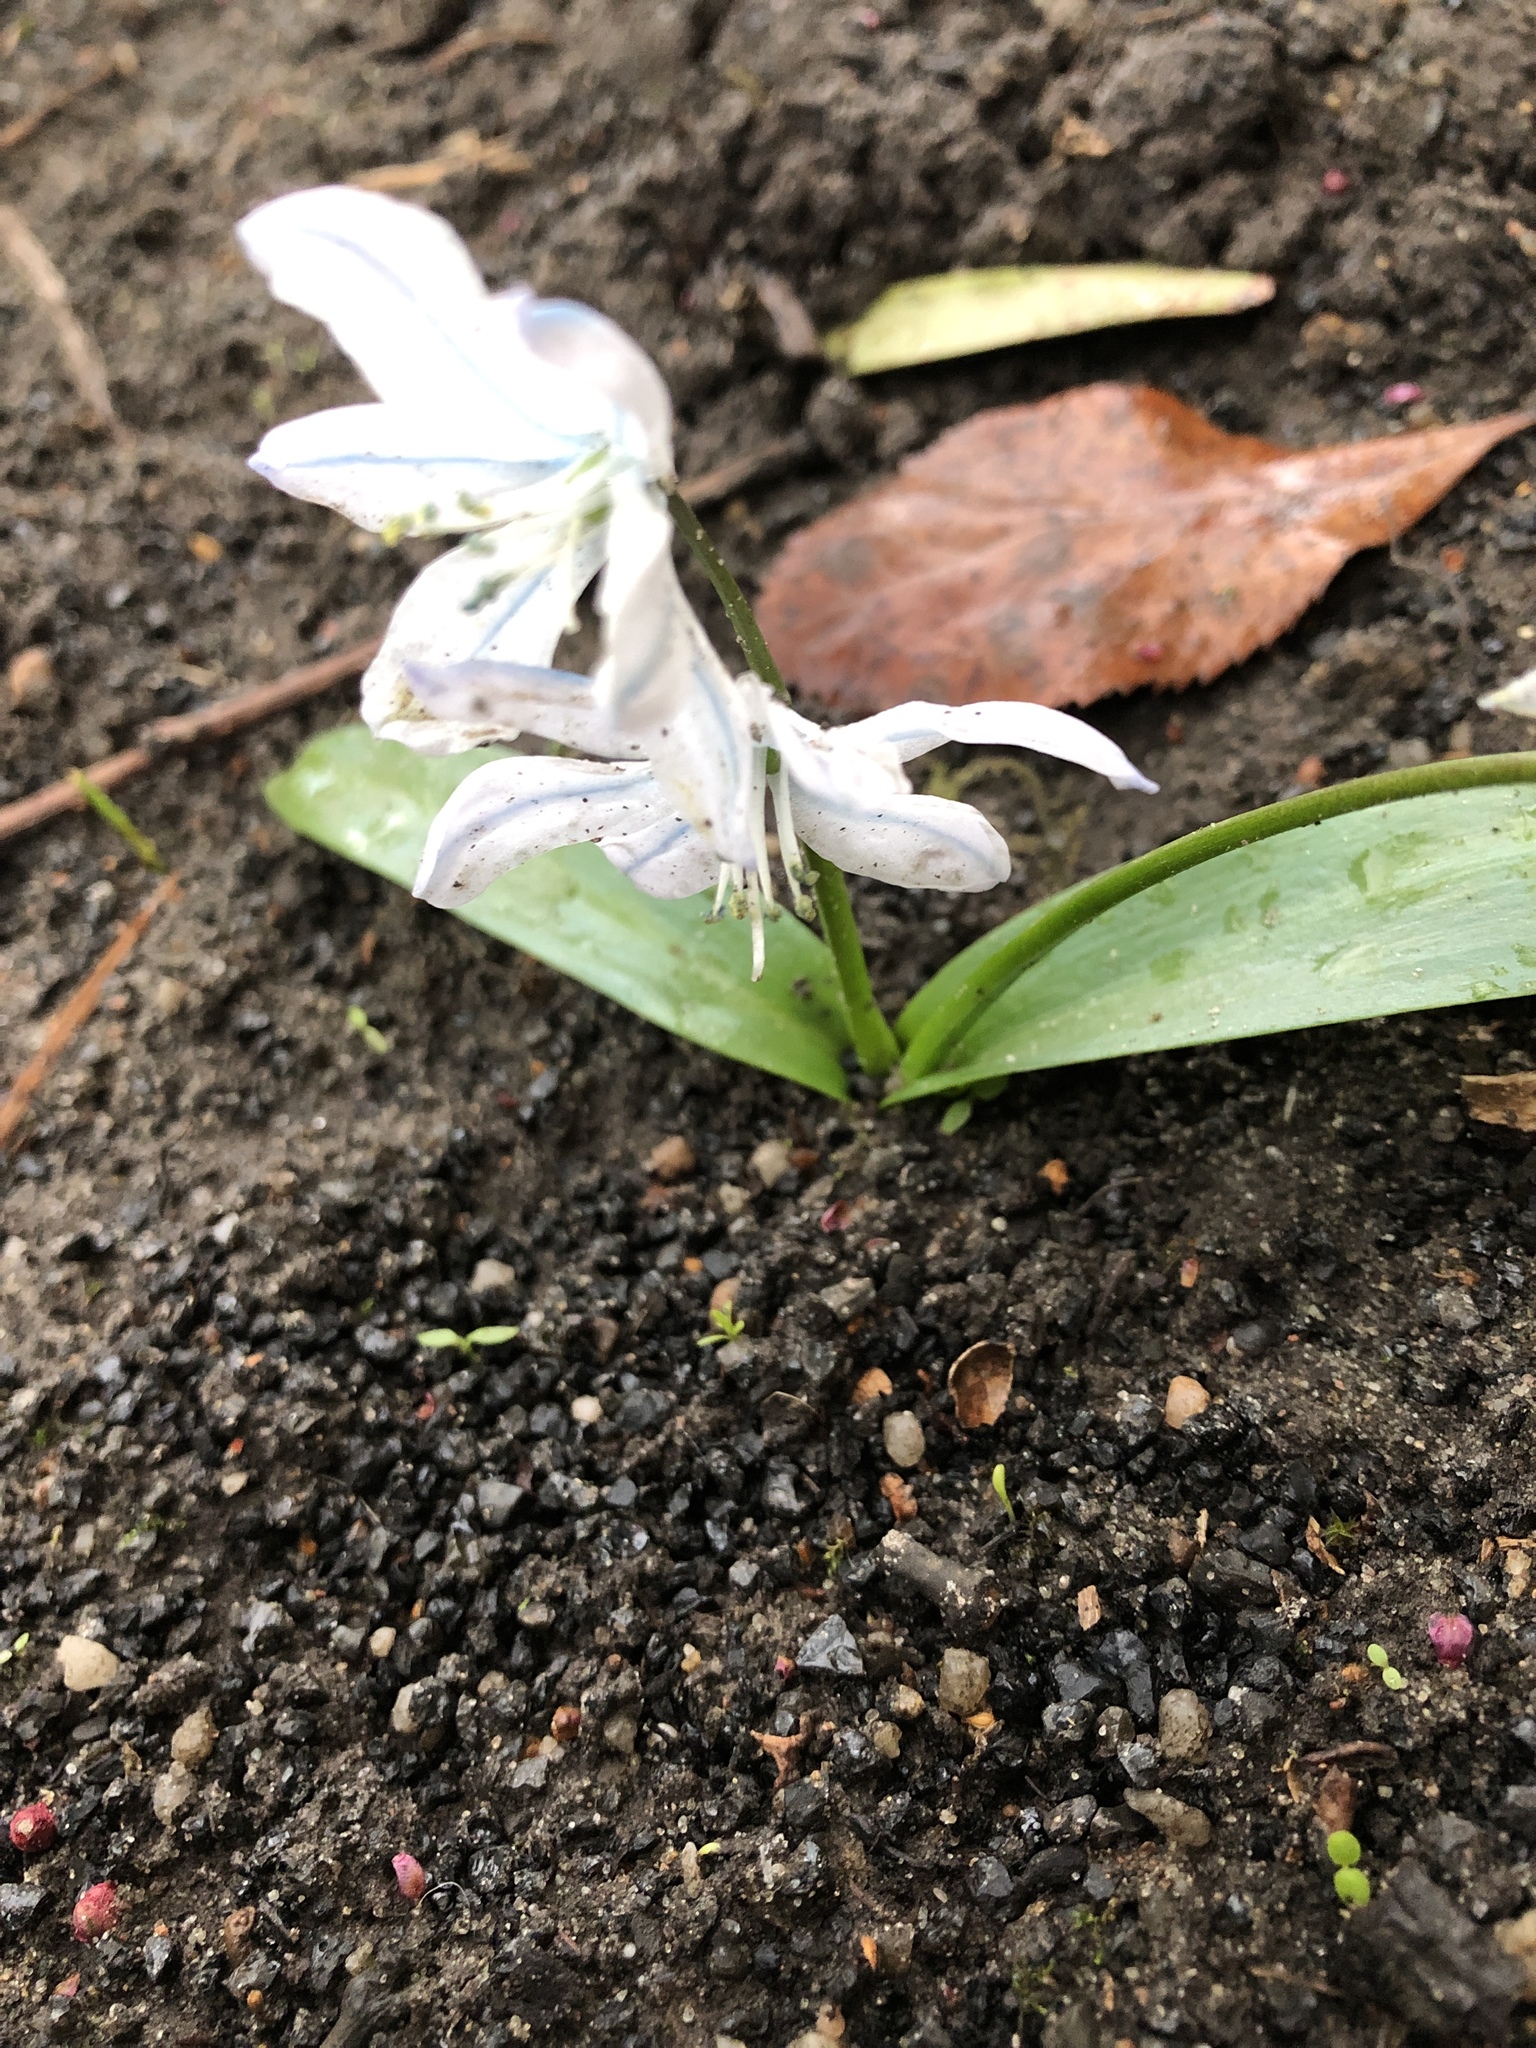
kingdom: Plantae
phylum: Tracheophyta
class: Liliopsida
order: Asparagales
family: Asparagaceae
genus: Scilla
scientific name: Scilla mischtschenkoana
